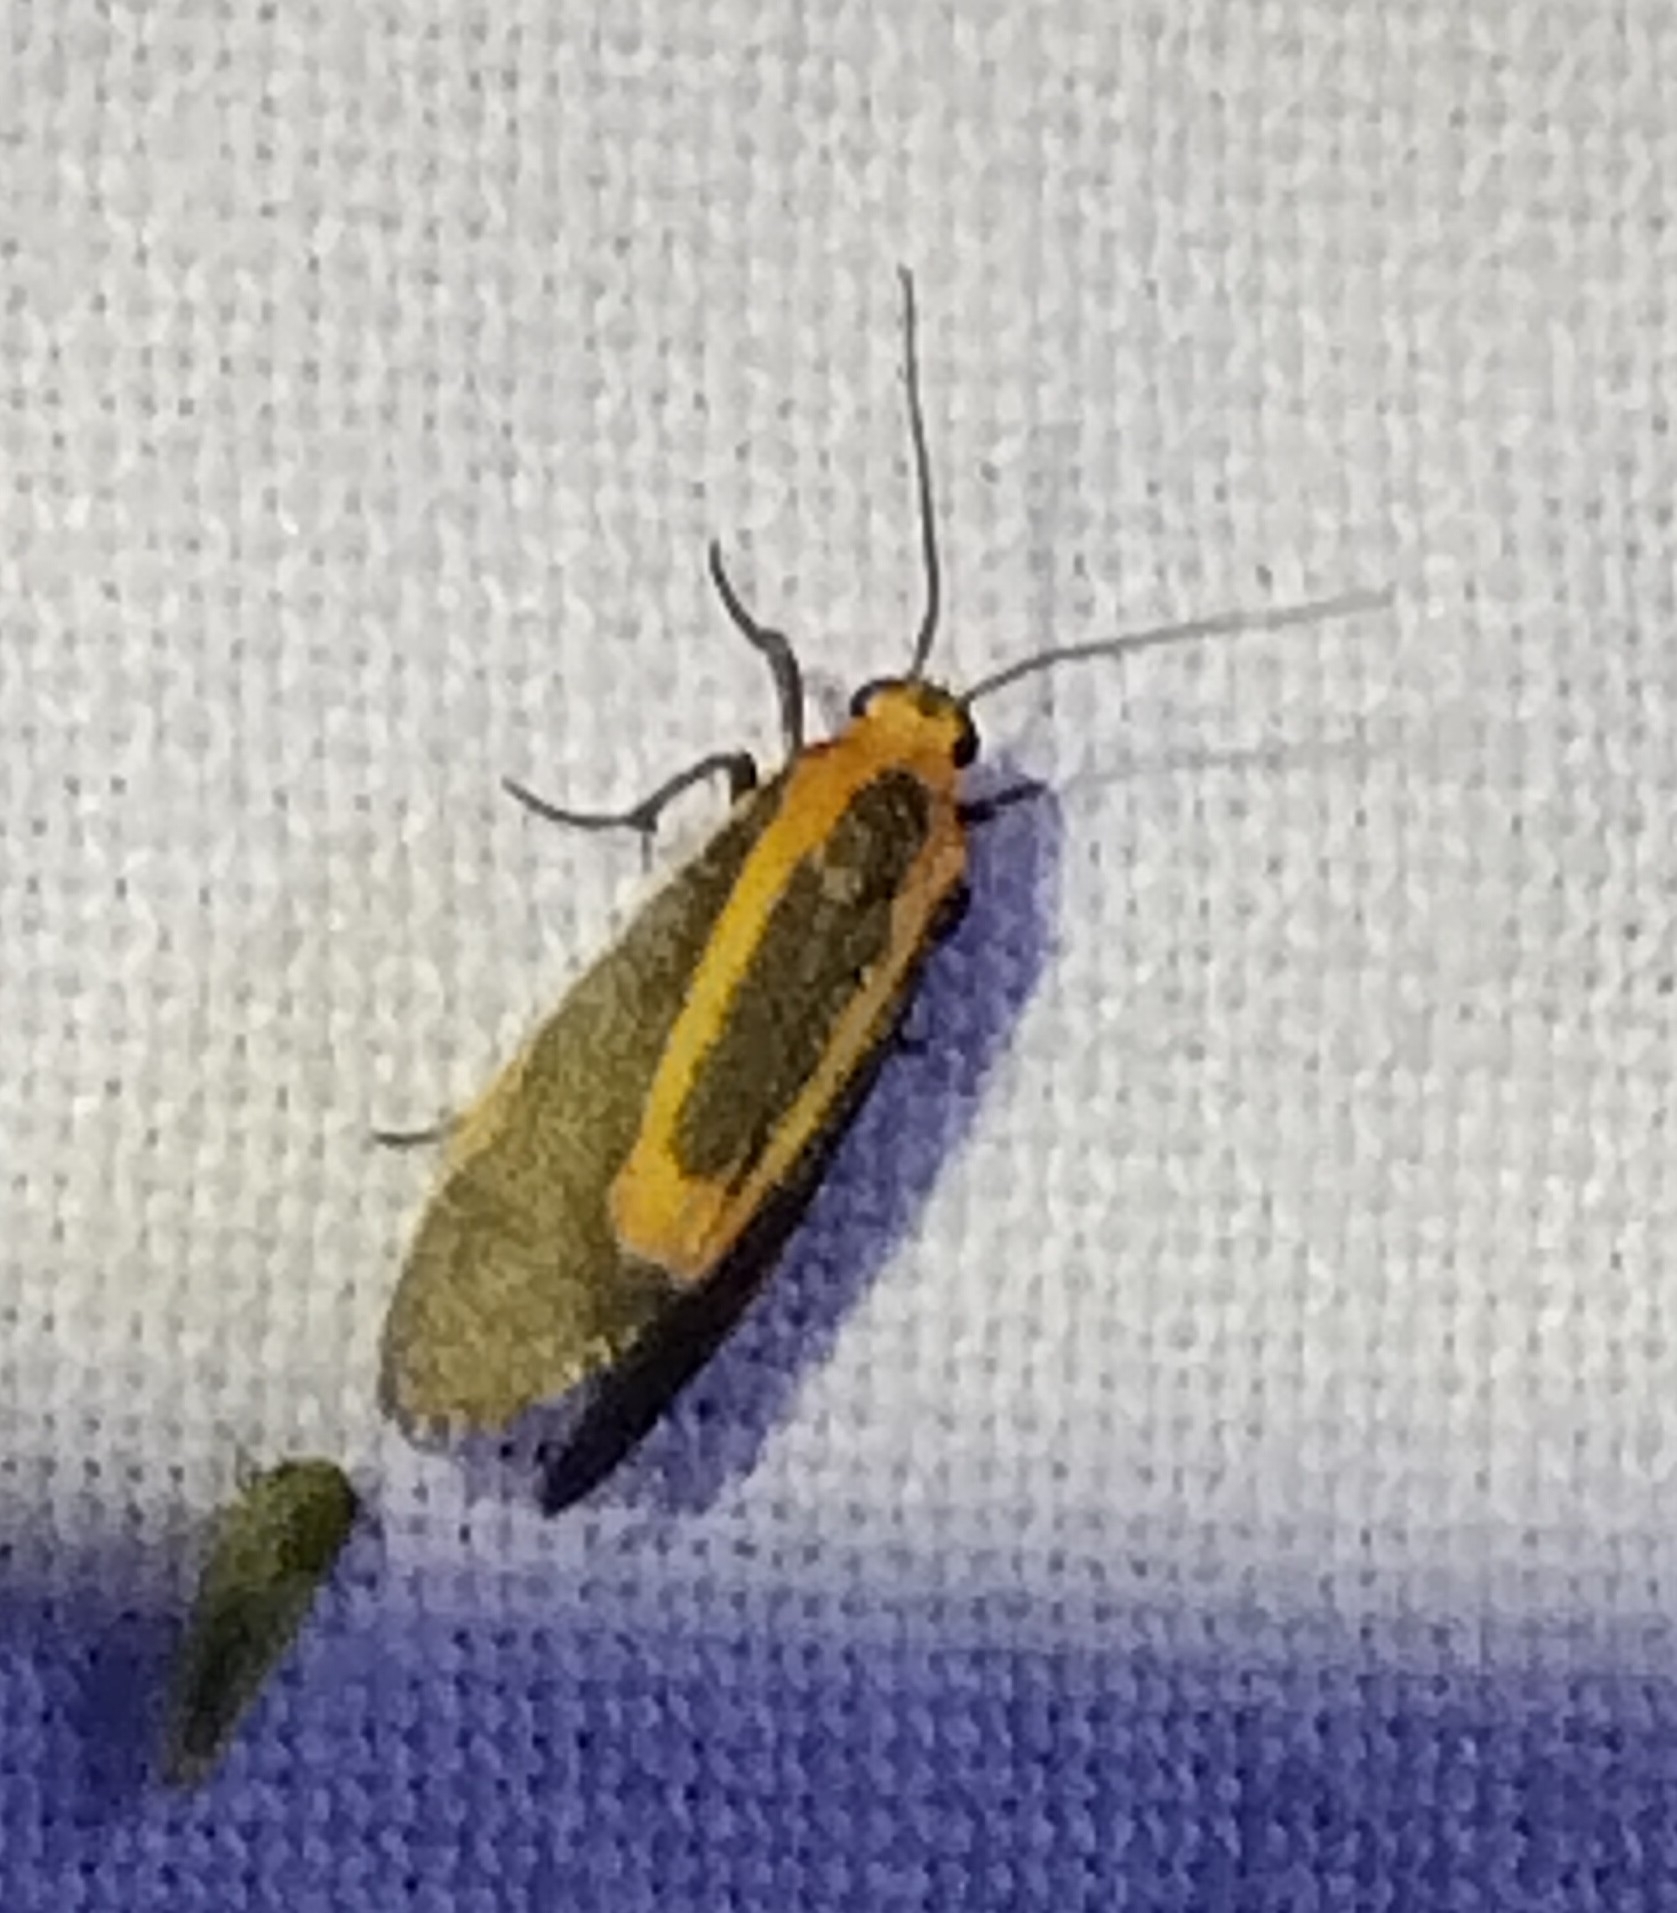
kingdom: Animalia
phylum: Arthropoda
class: Insecta
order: Lepidoptera
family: Erebidae
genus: Cisthene
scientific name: Cisthene subjecta
